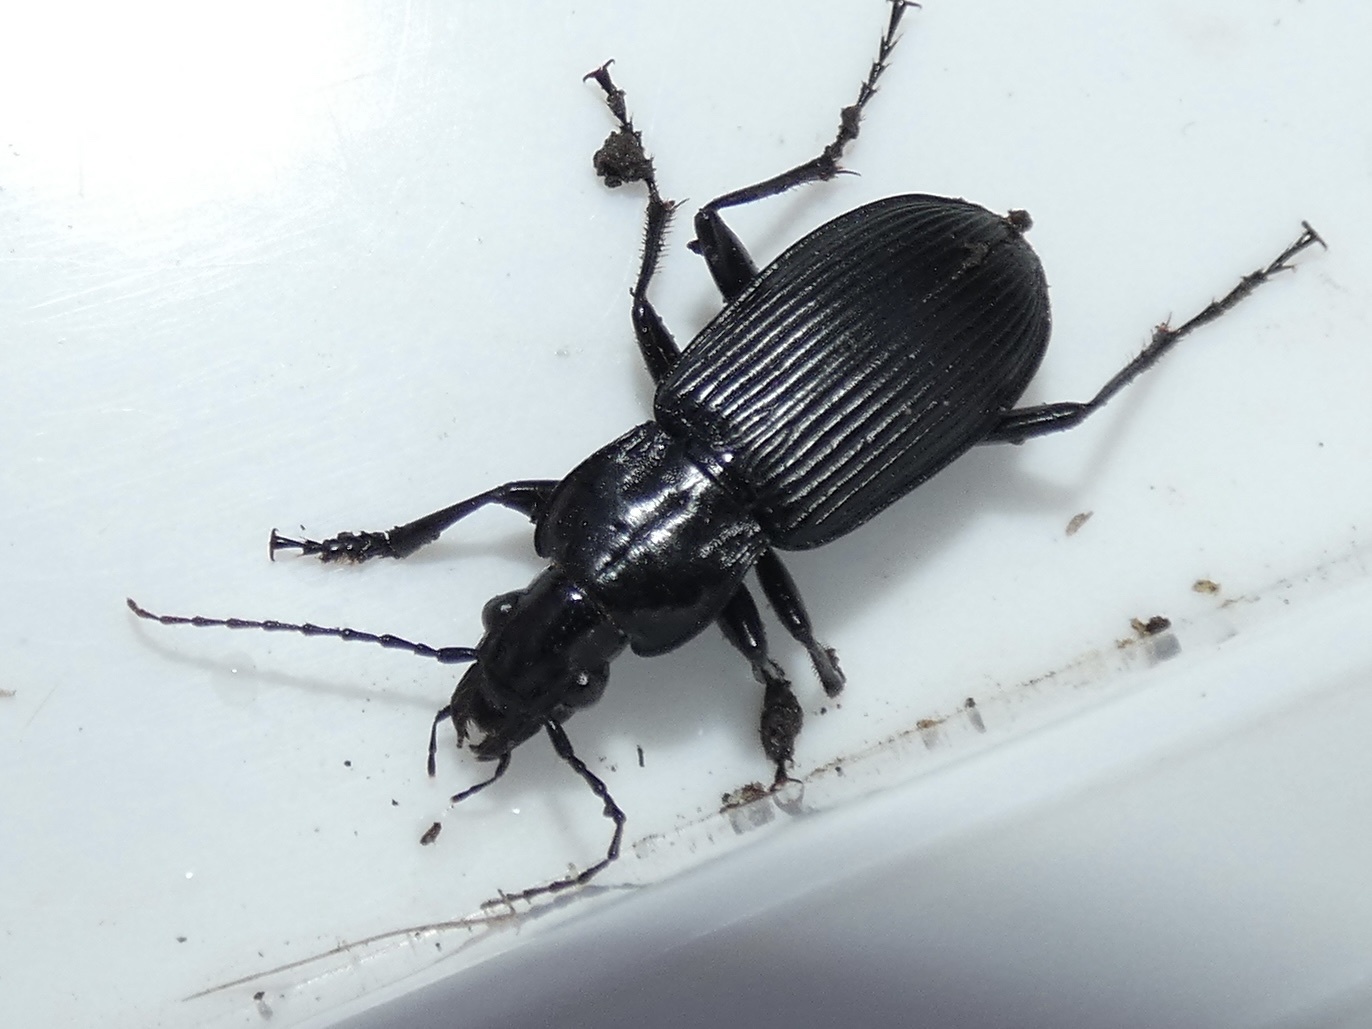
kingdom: Animalia
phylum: Arthropoda
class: Insecta
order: Coleoptera
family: Carabidae
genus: Pterostichus
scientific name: Pterostichus niger
